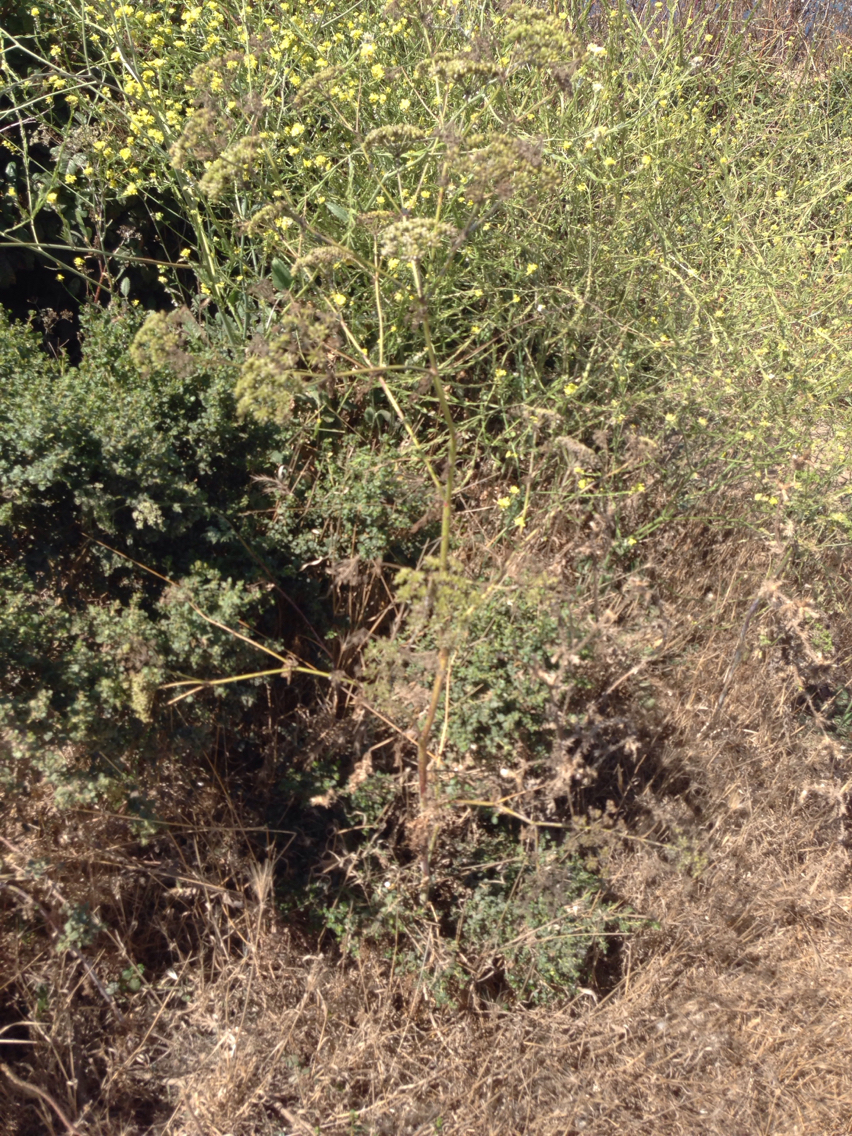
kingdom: Plantae
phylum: Tracheophyta
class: Magnoliopsida
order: Apiales
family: Apiaceae
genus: Conium
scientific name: Conium maculatum
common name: Hemlock
